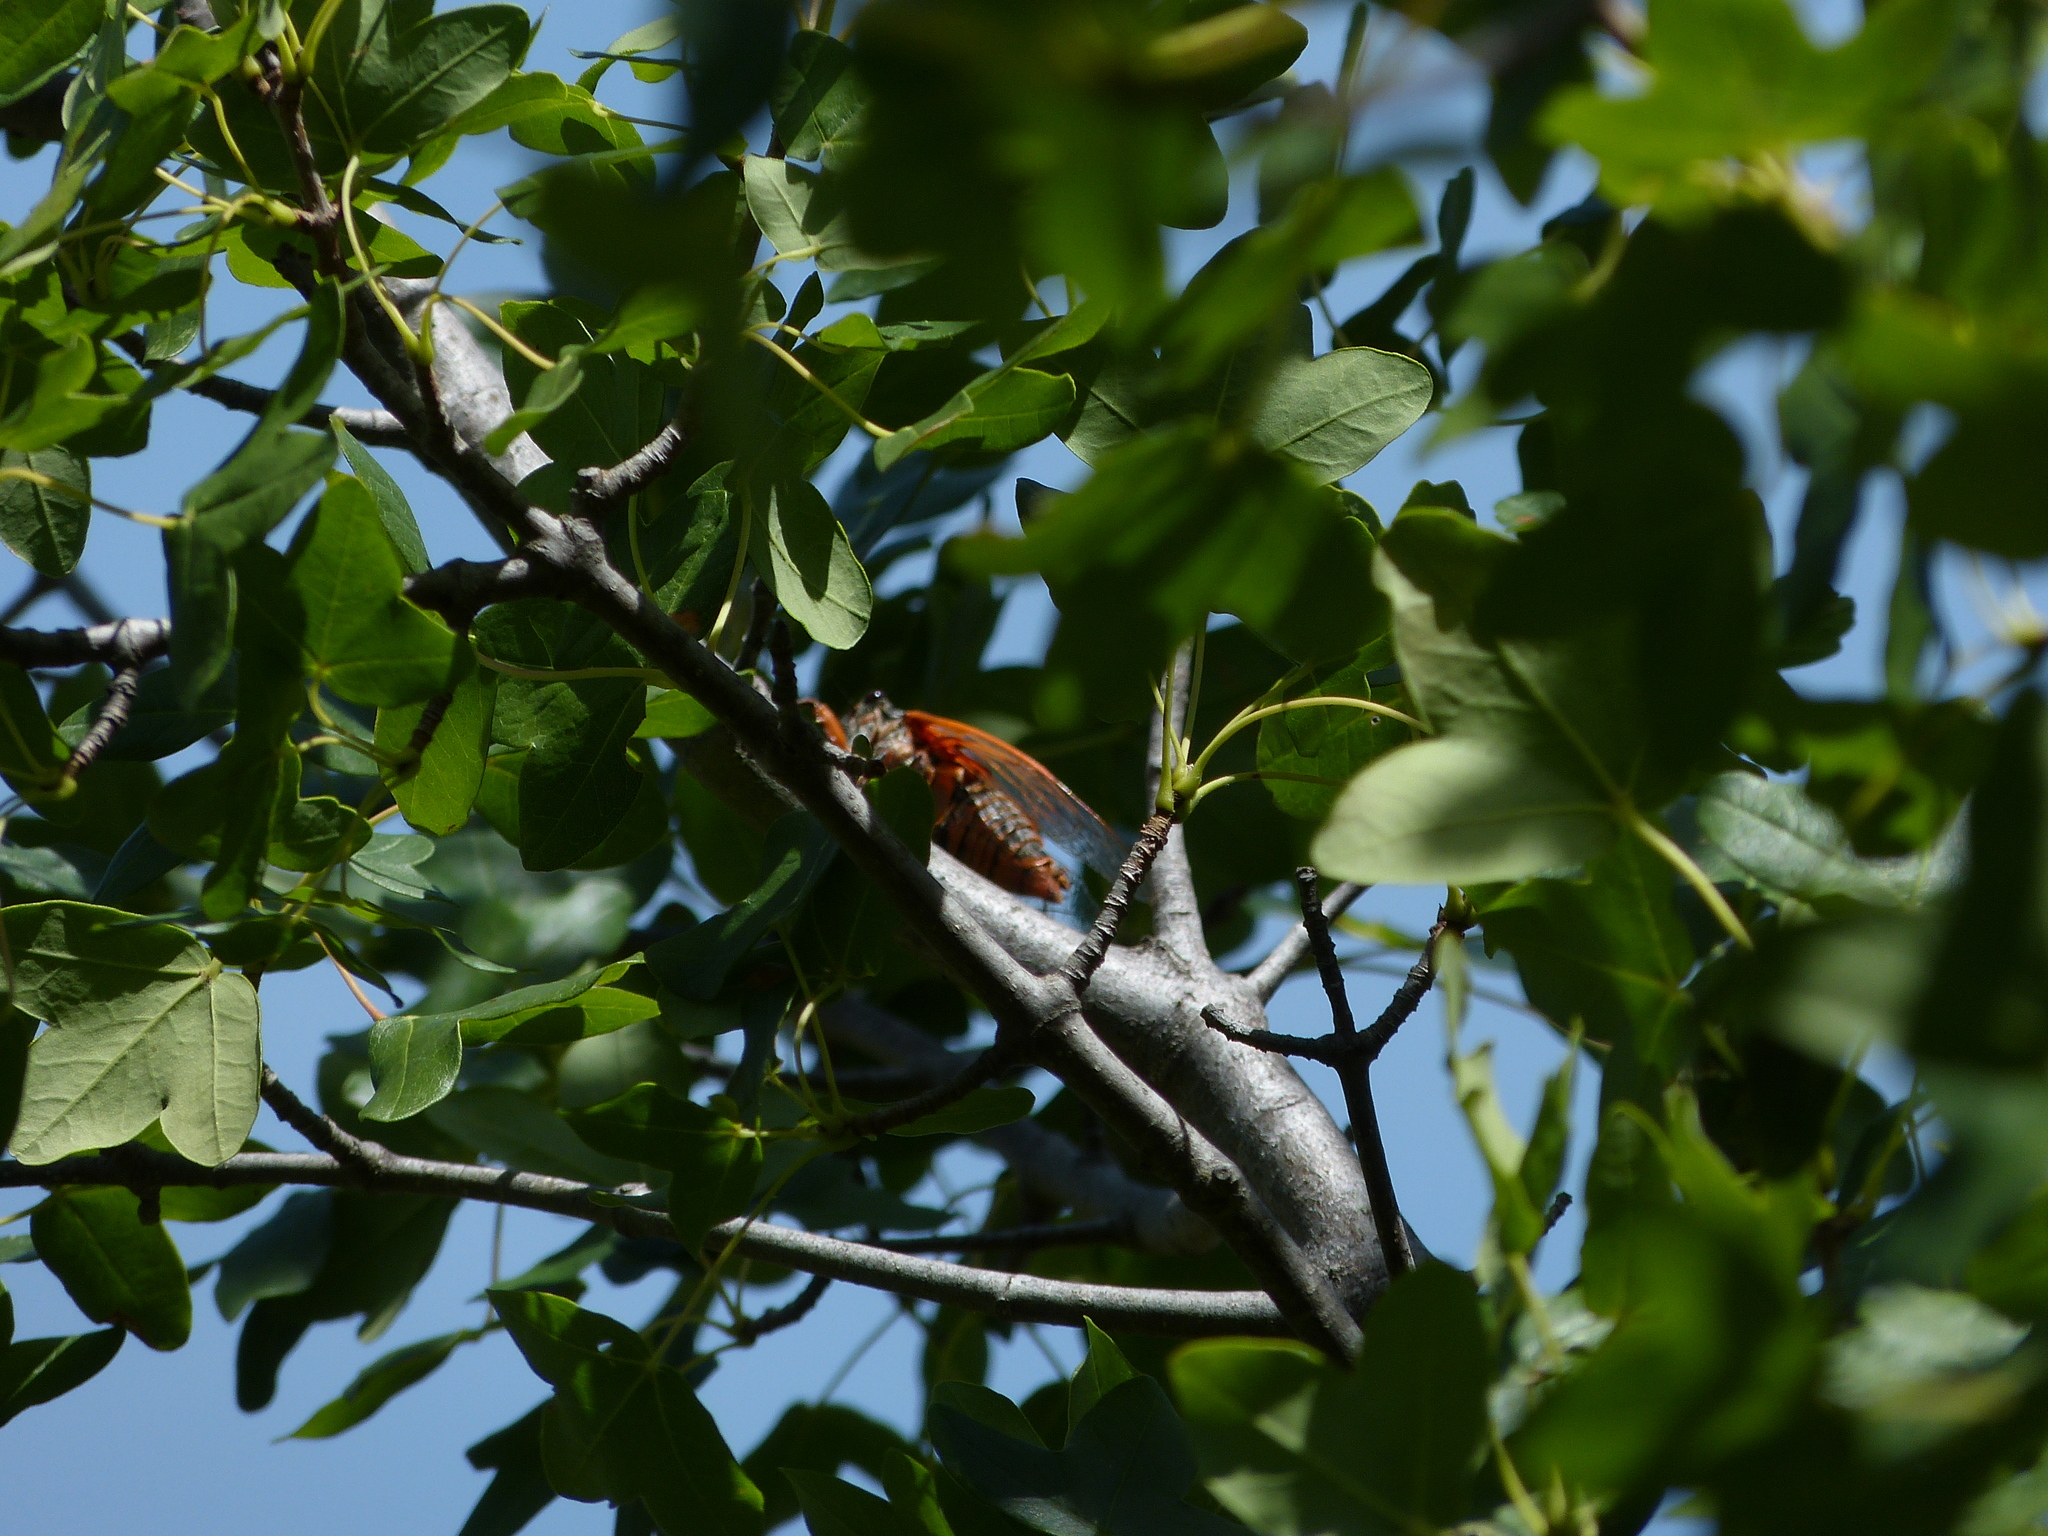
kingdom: Animalia
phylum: Arthropoda
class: Insecta
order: Hemiptera
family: Cicadidae
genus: Tibicina
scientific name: Tibicina haematodes
